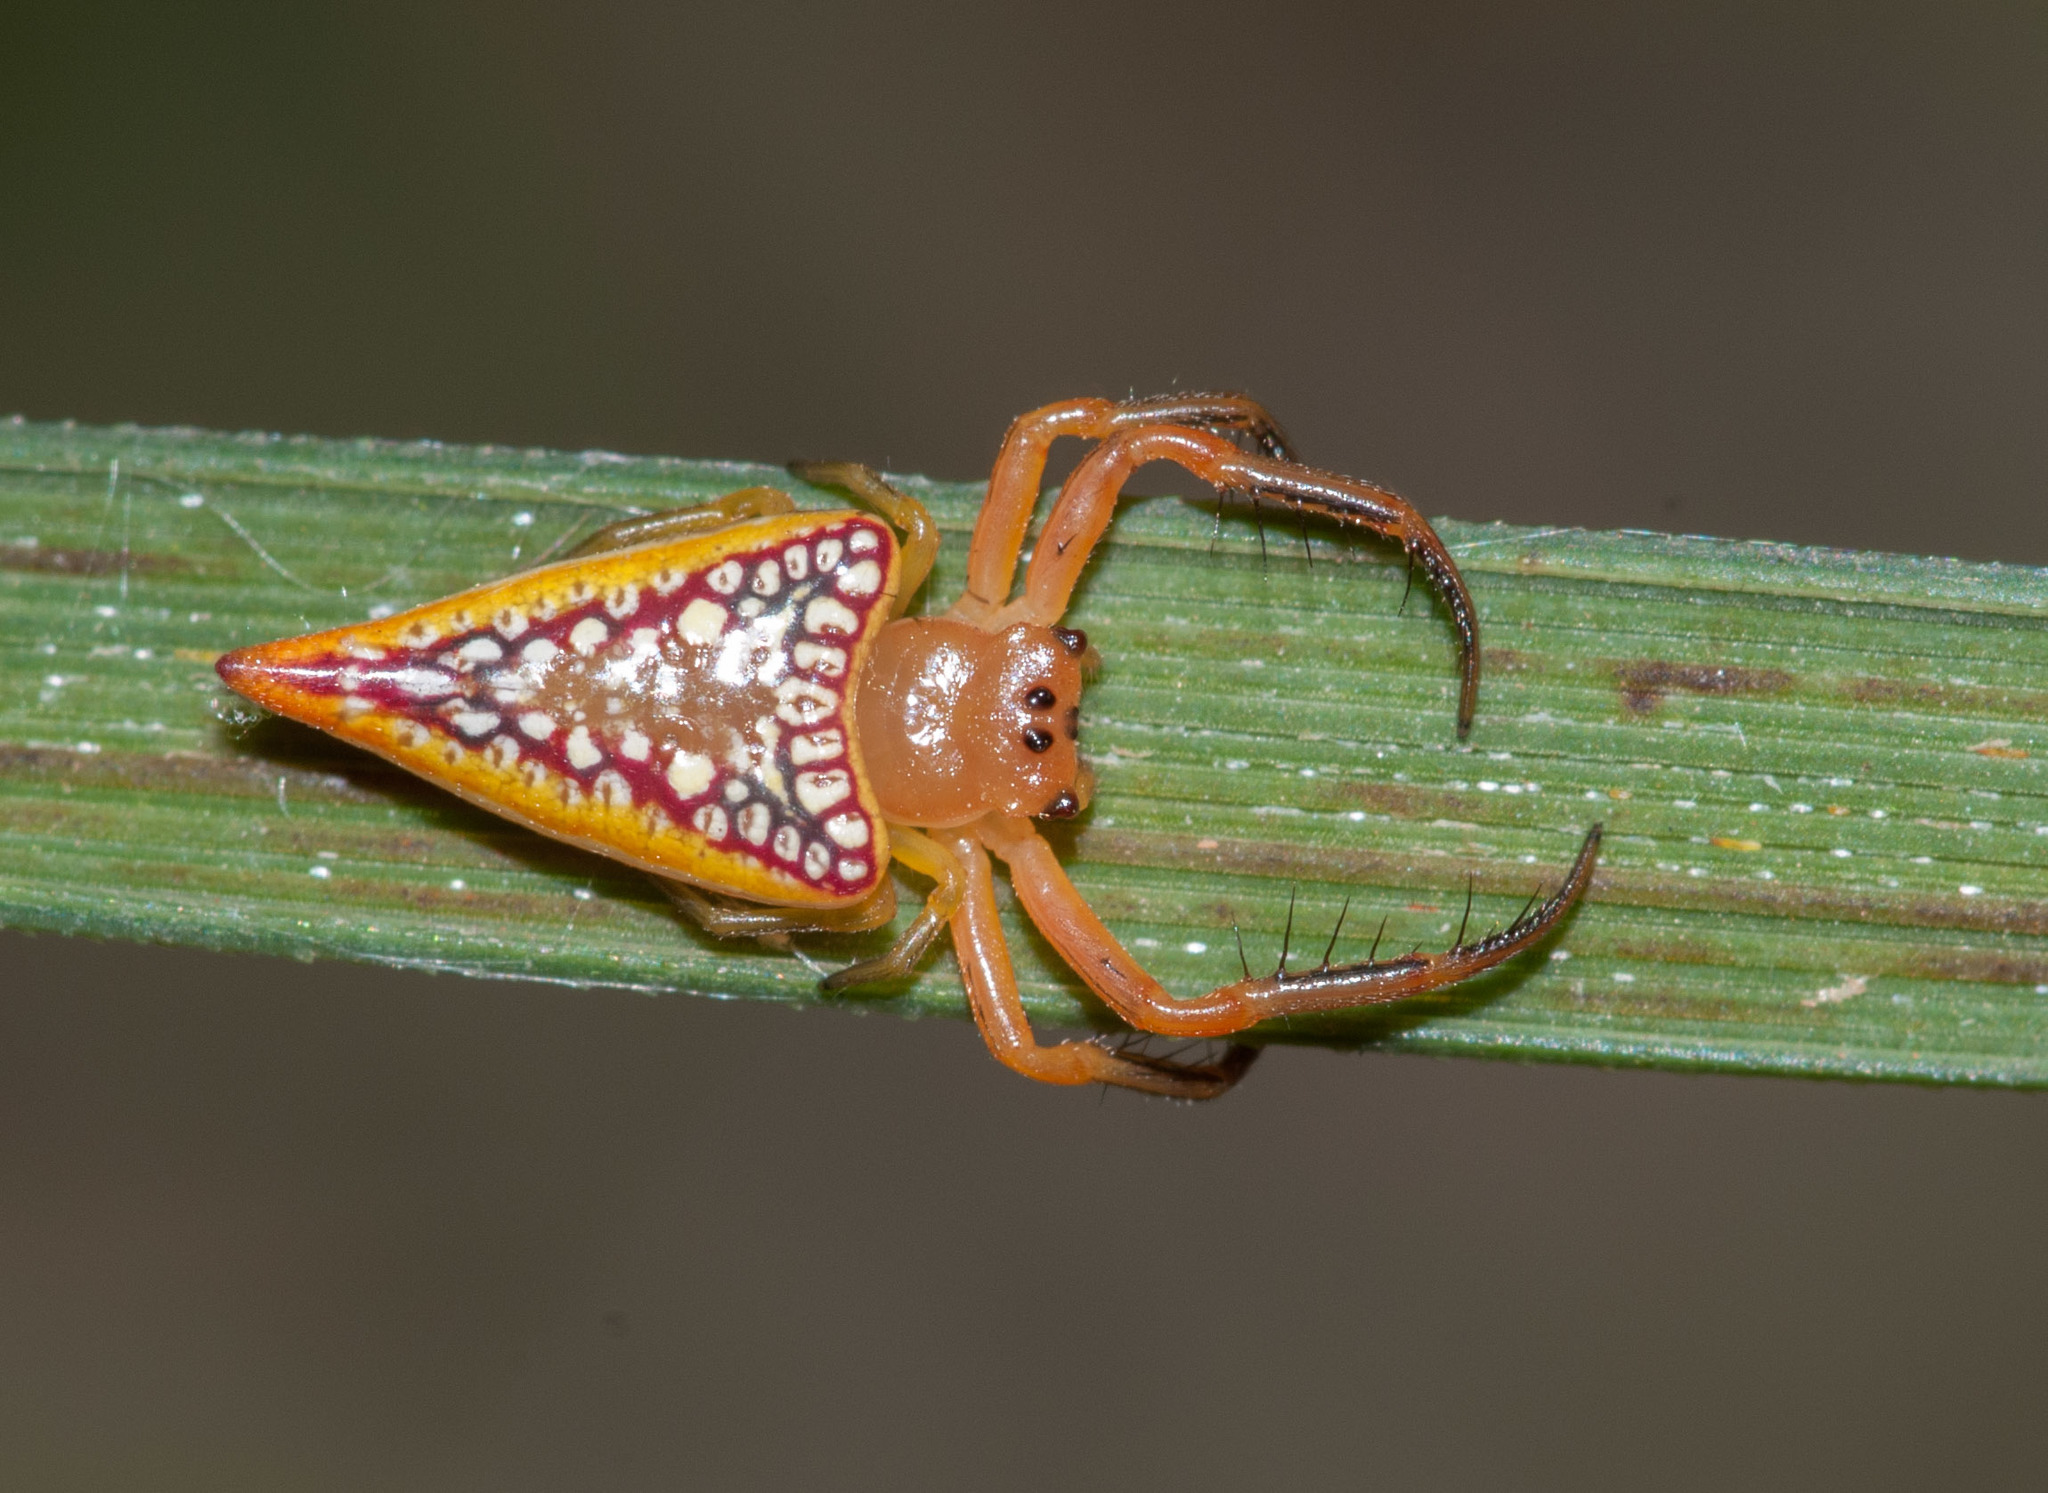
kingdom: Animalia
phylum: Arthropoda
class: Arachnida
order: Araneae
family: Arkyidae
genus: Arkys
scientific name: Arkys walckenaeri
